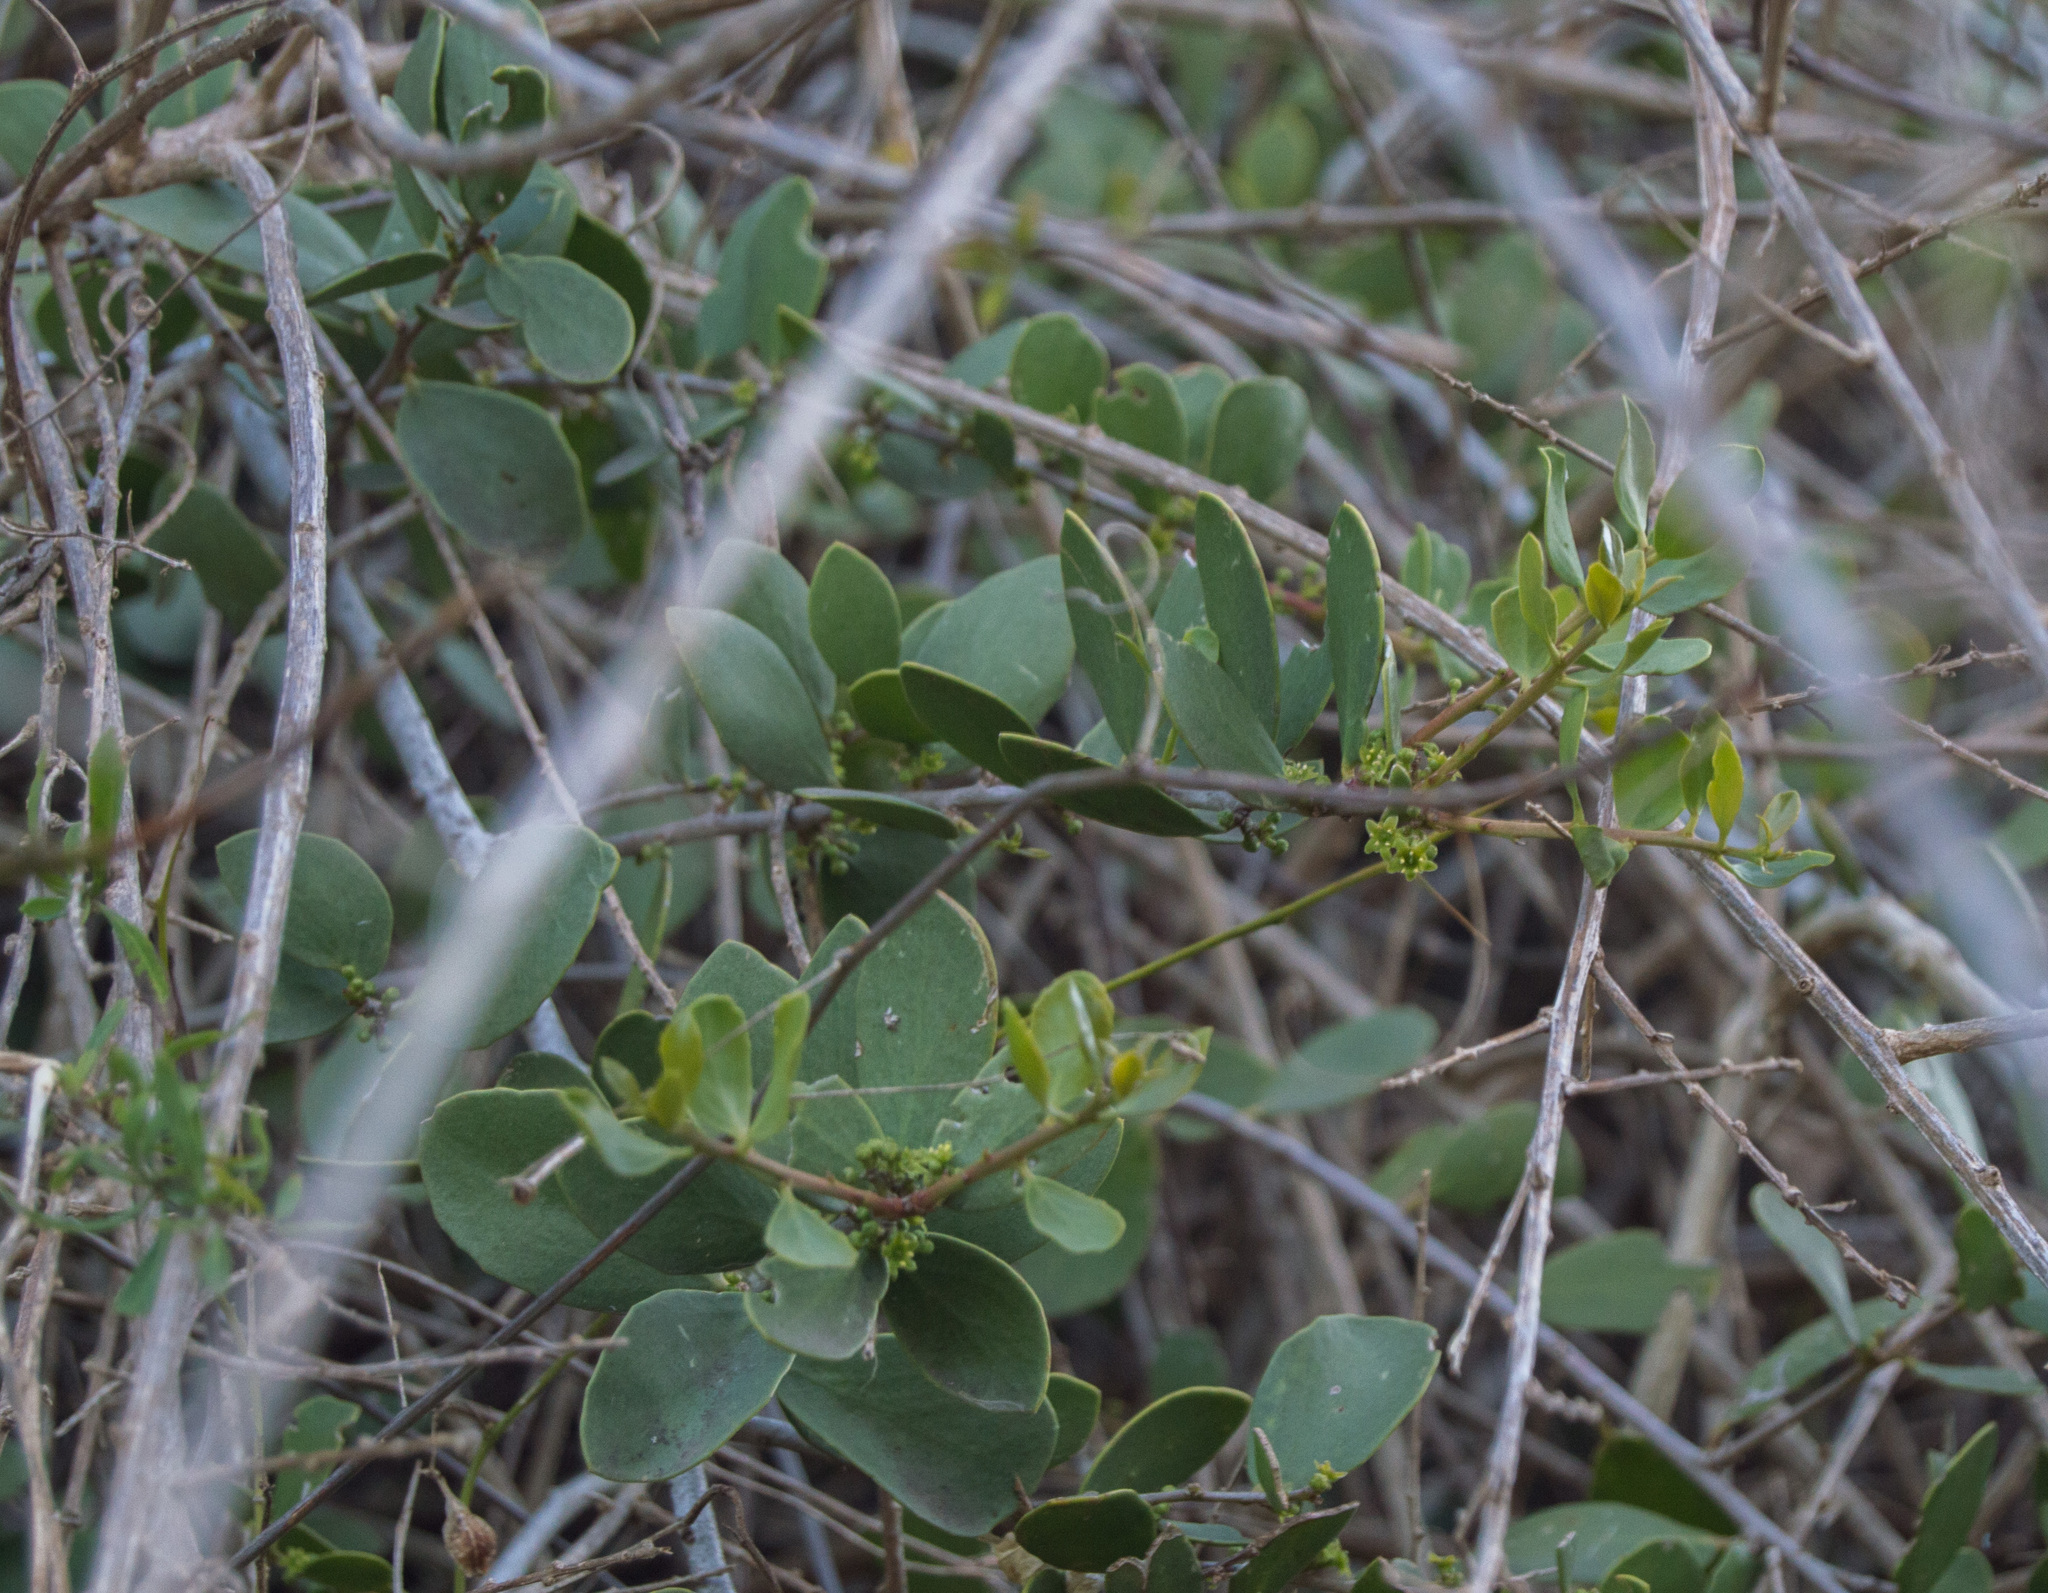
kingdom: Plantae
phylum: Tracheophyta
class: Magnoliopsida
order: Celastrales
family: Celastraceae
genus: Tricerma
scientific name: Tricerma vitis-idaeum
